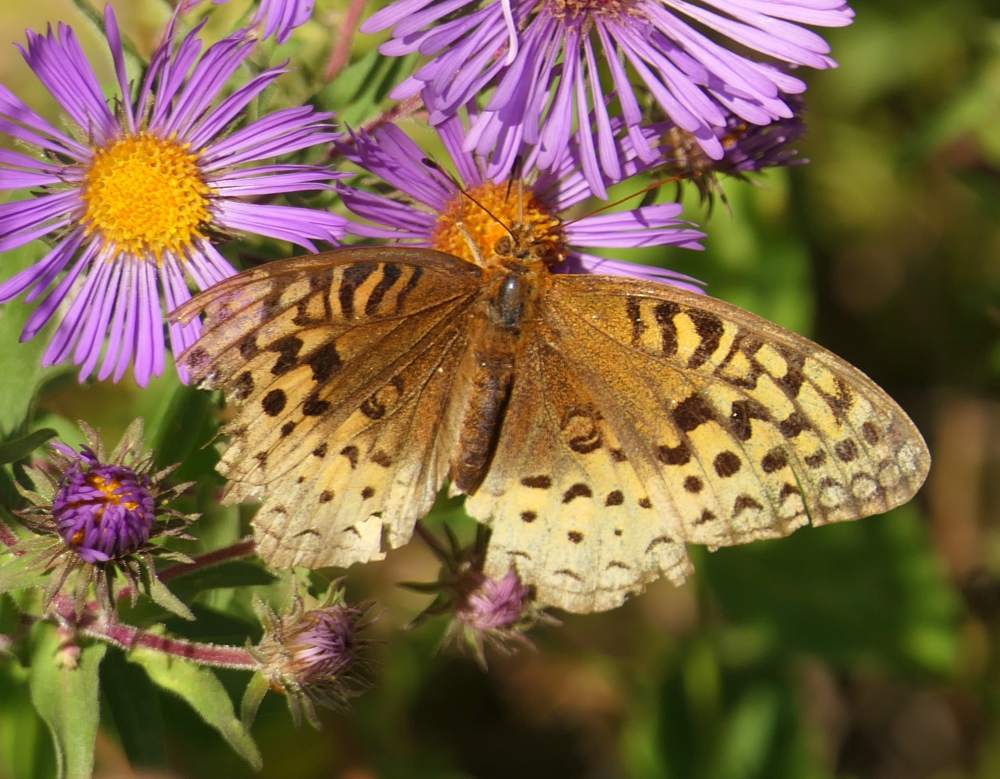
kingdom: Animalia
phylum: Arthropoda
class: Insecta
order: Lepidoptera
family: Nymphalidae
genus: Speyeria
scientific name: Speyeria cybele
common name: Great spangled fritillary
